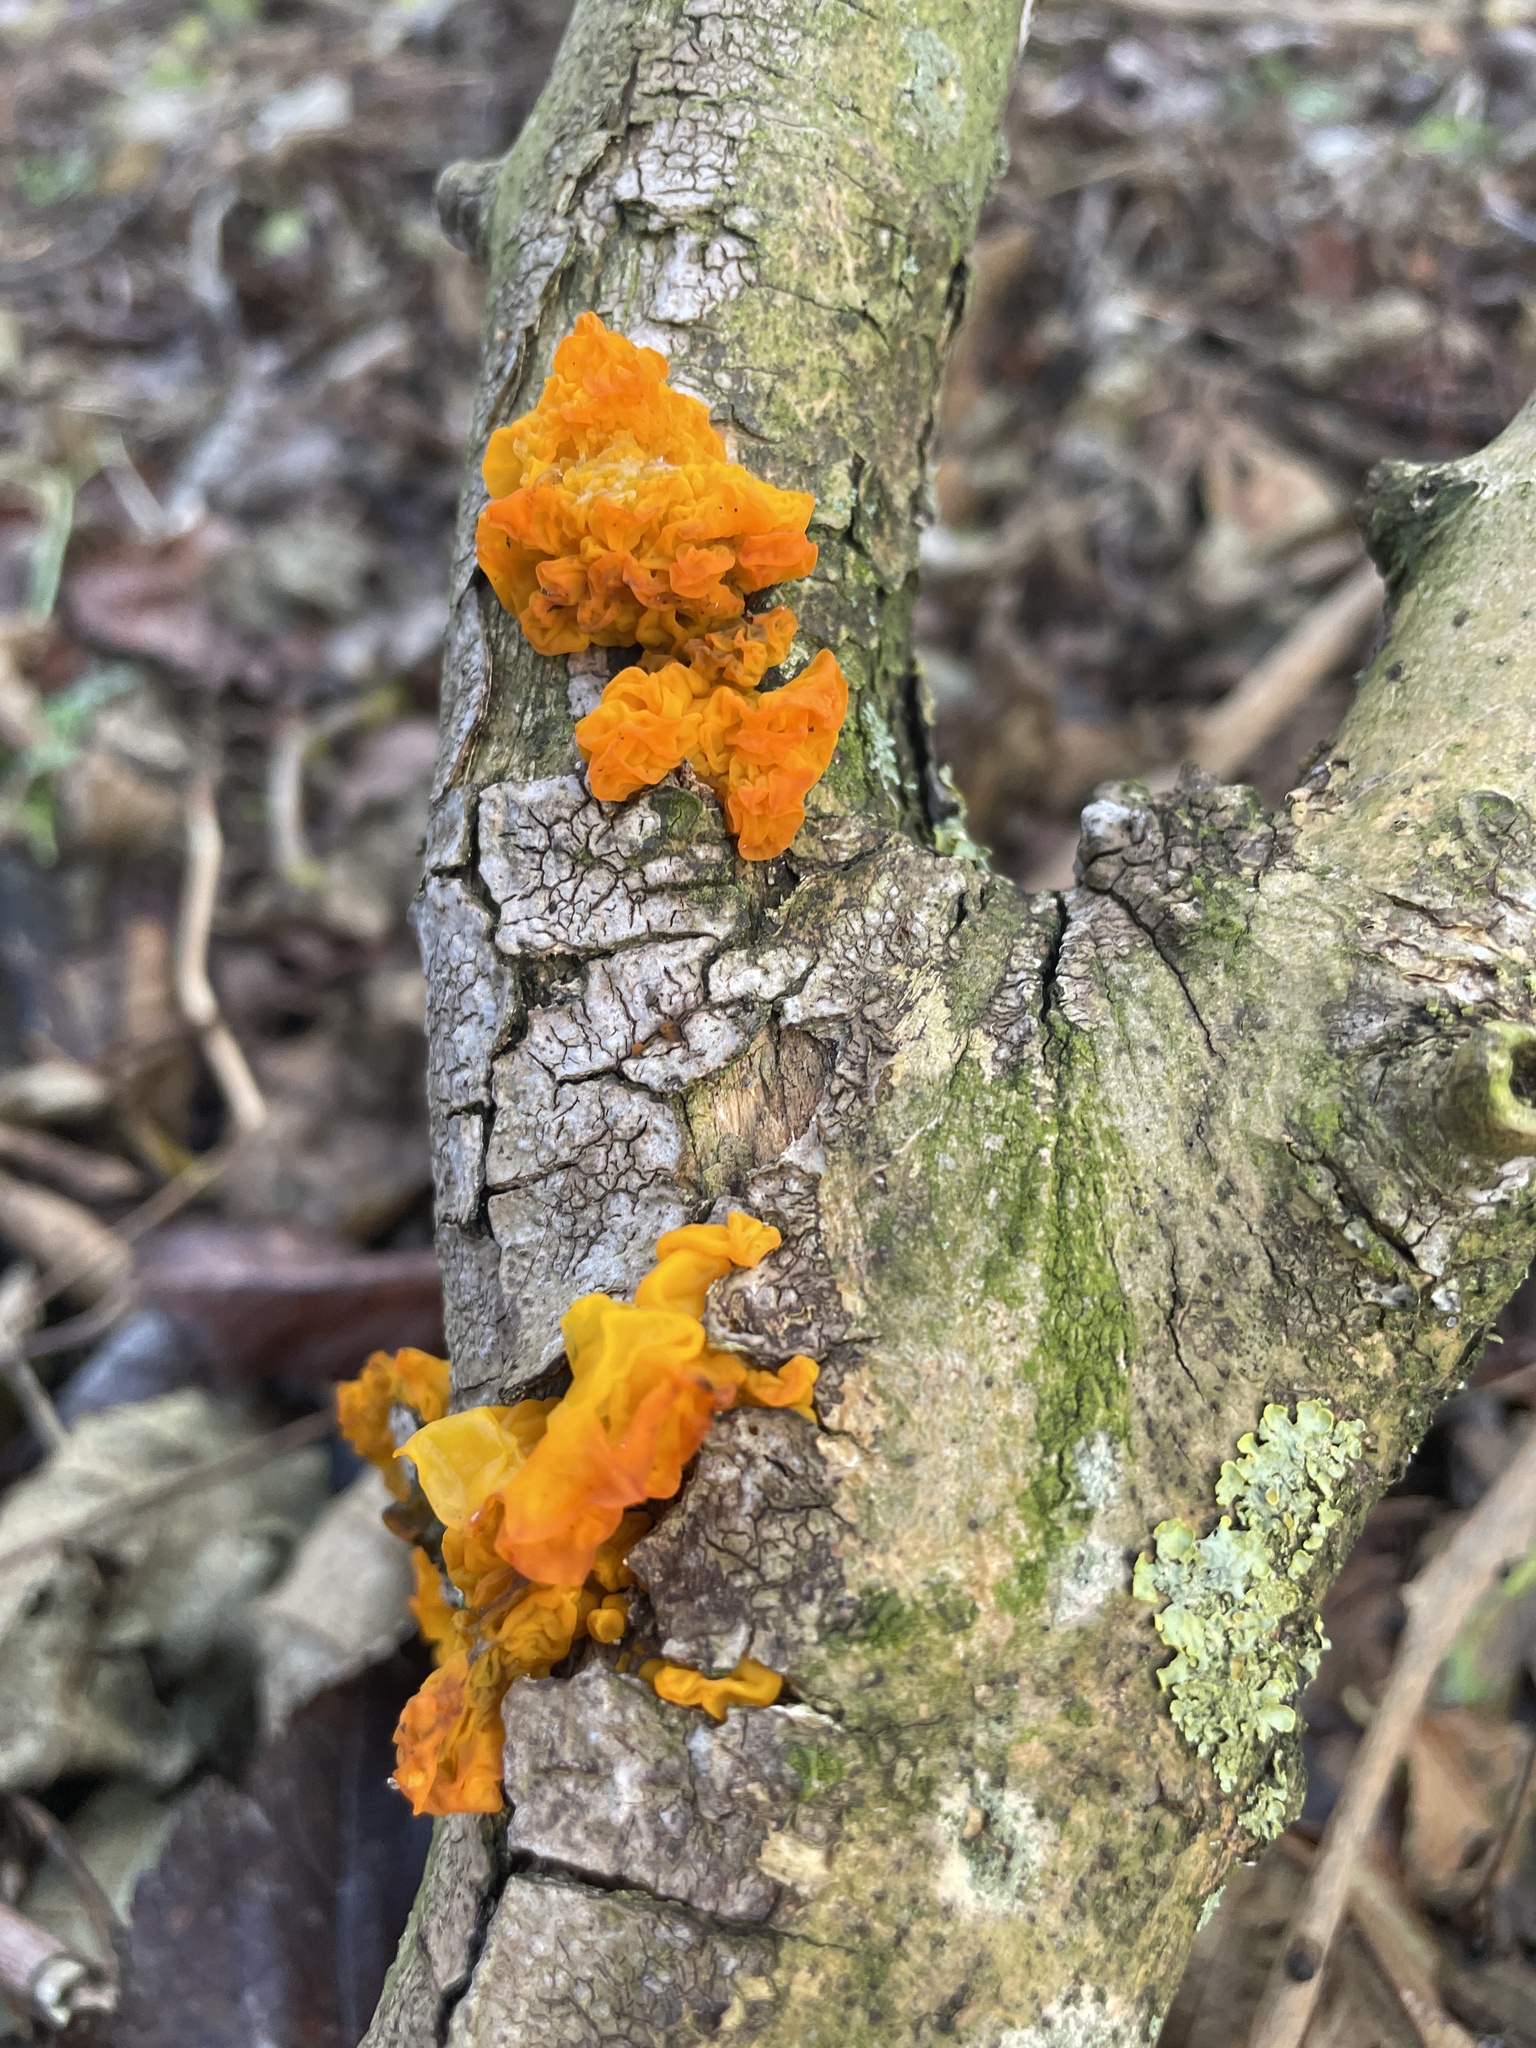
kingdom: Fungi
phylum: Basidiomycota
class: Tremellomycetes
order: Tremellales
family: Tremellaceae
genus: Tremella
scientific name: Tremella mesenterica
